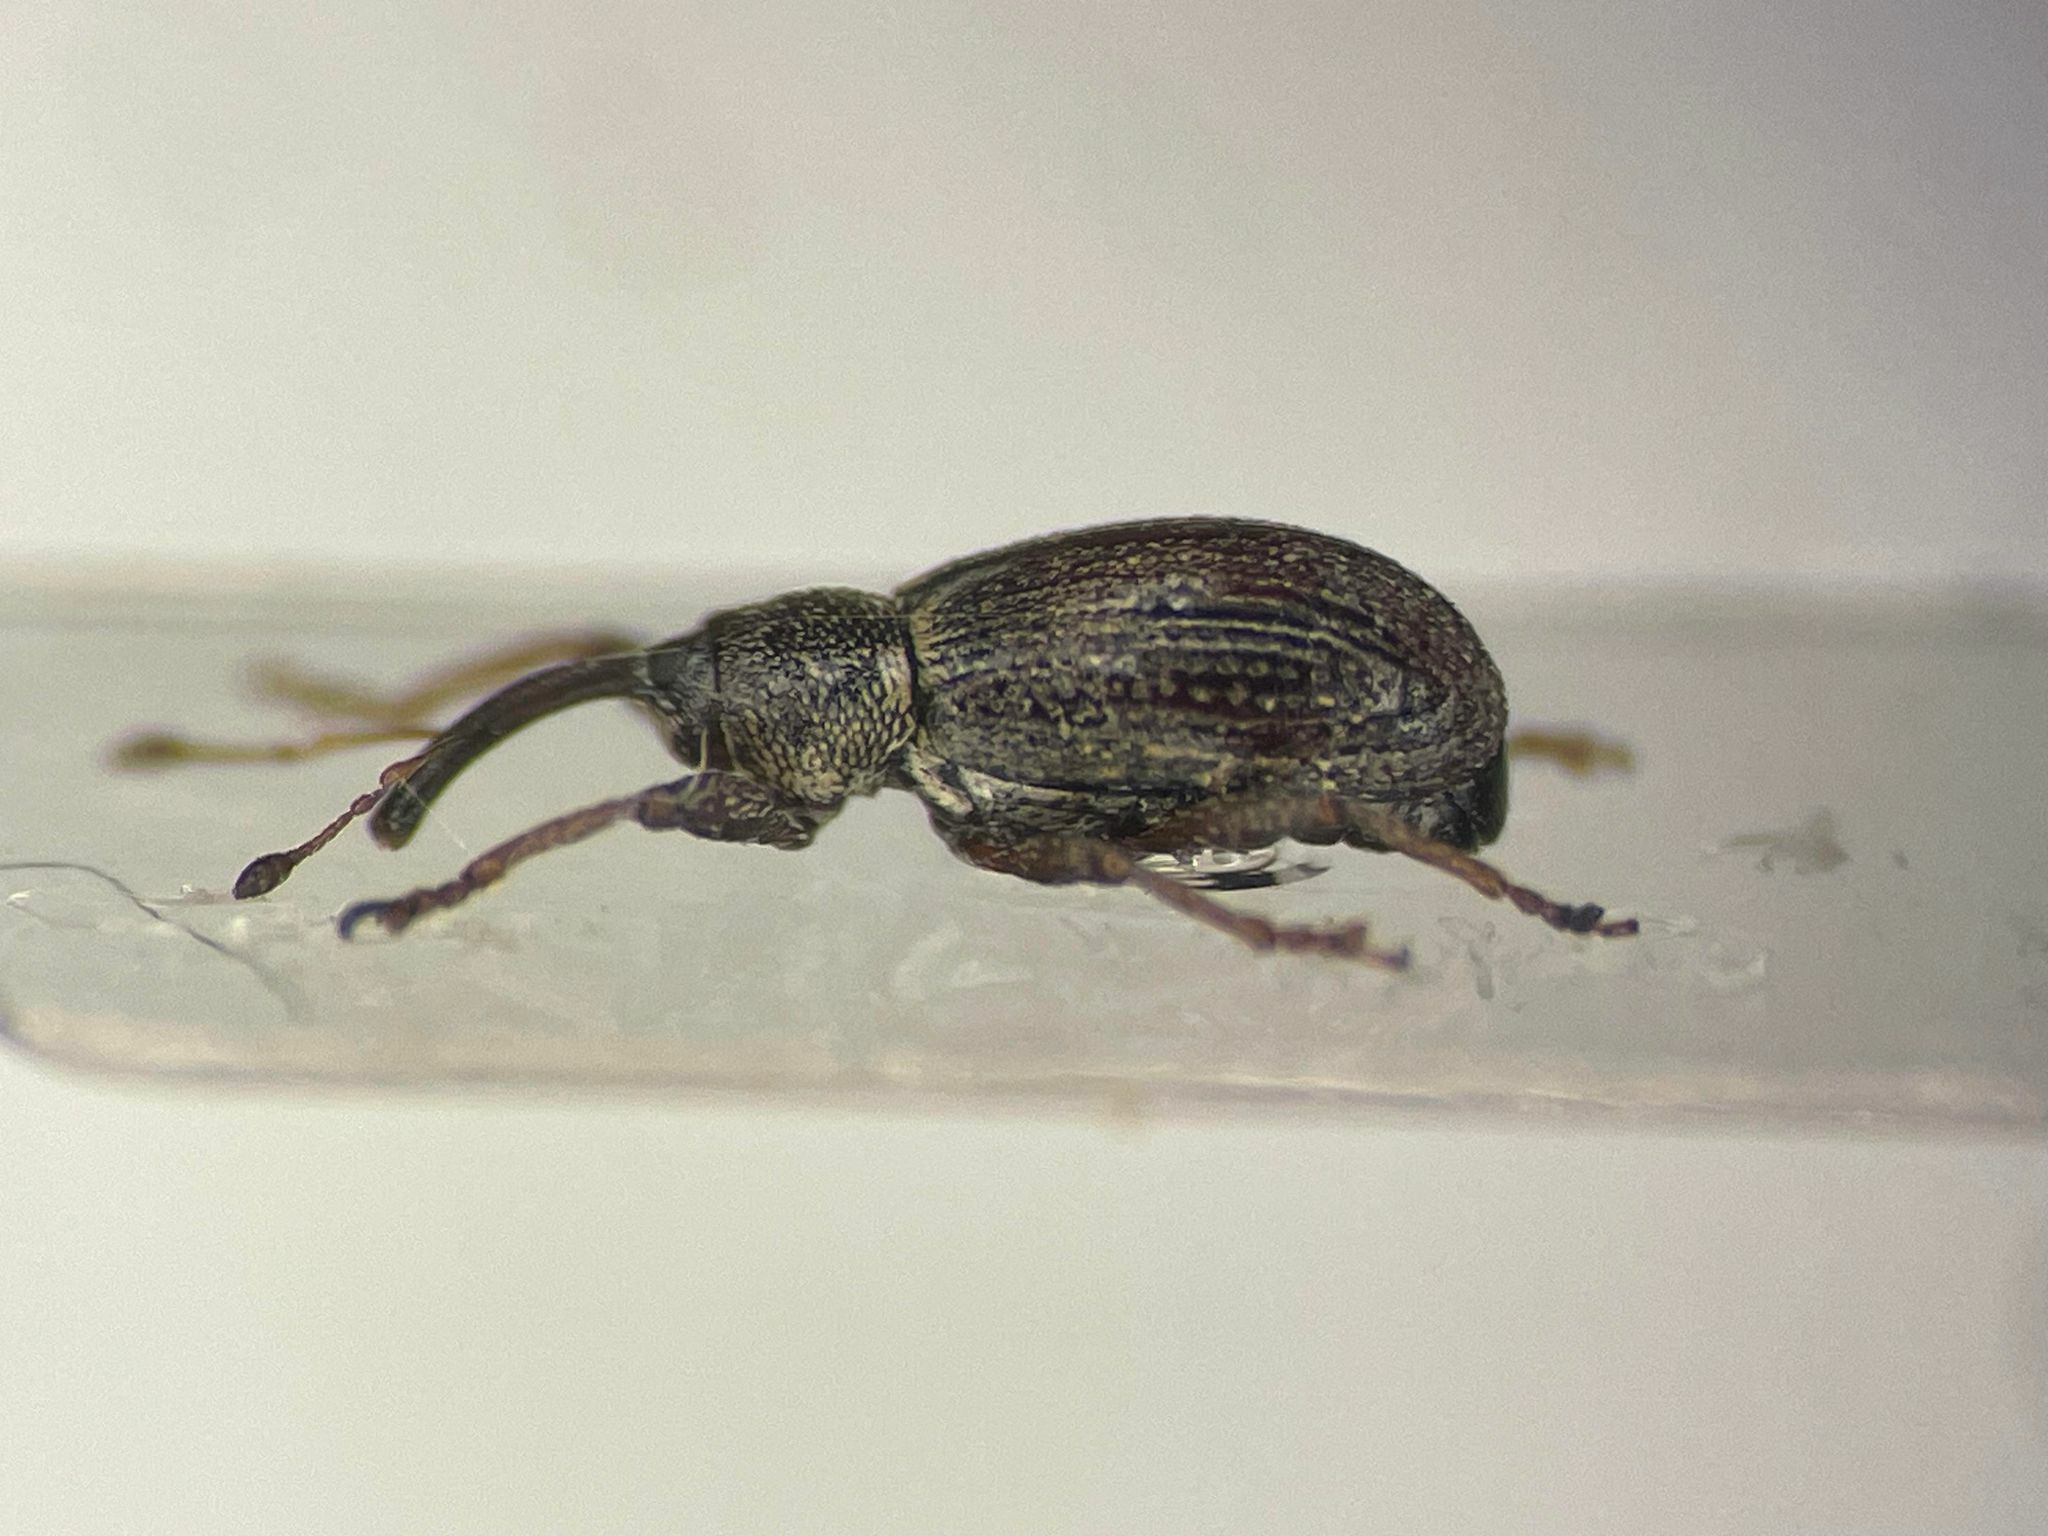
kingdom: Animalia
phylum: Arthropoda
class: Insecta
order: Coleoptera
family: Curculionidae
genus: Anthonomus
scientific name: Anthonomus elongatus
